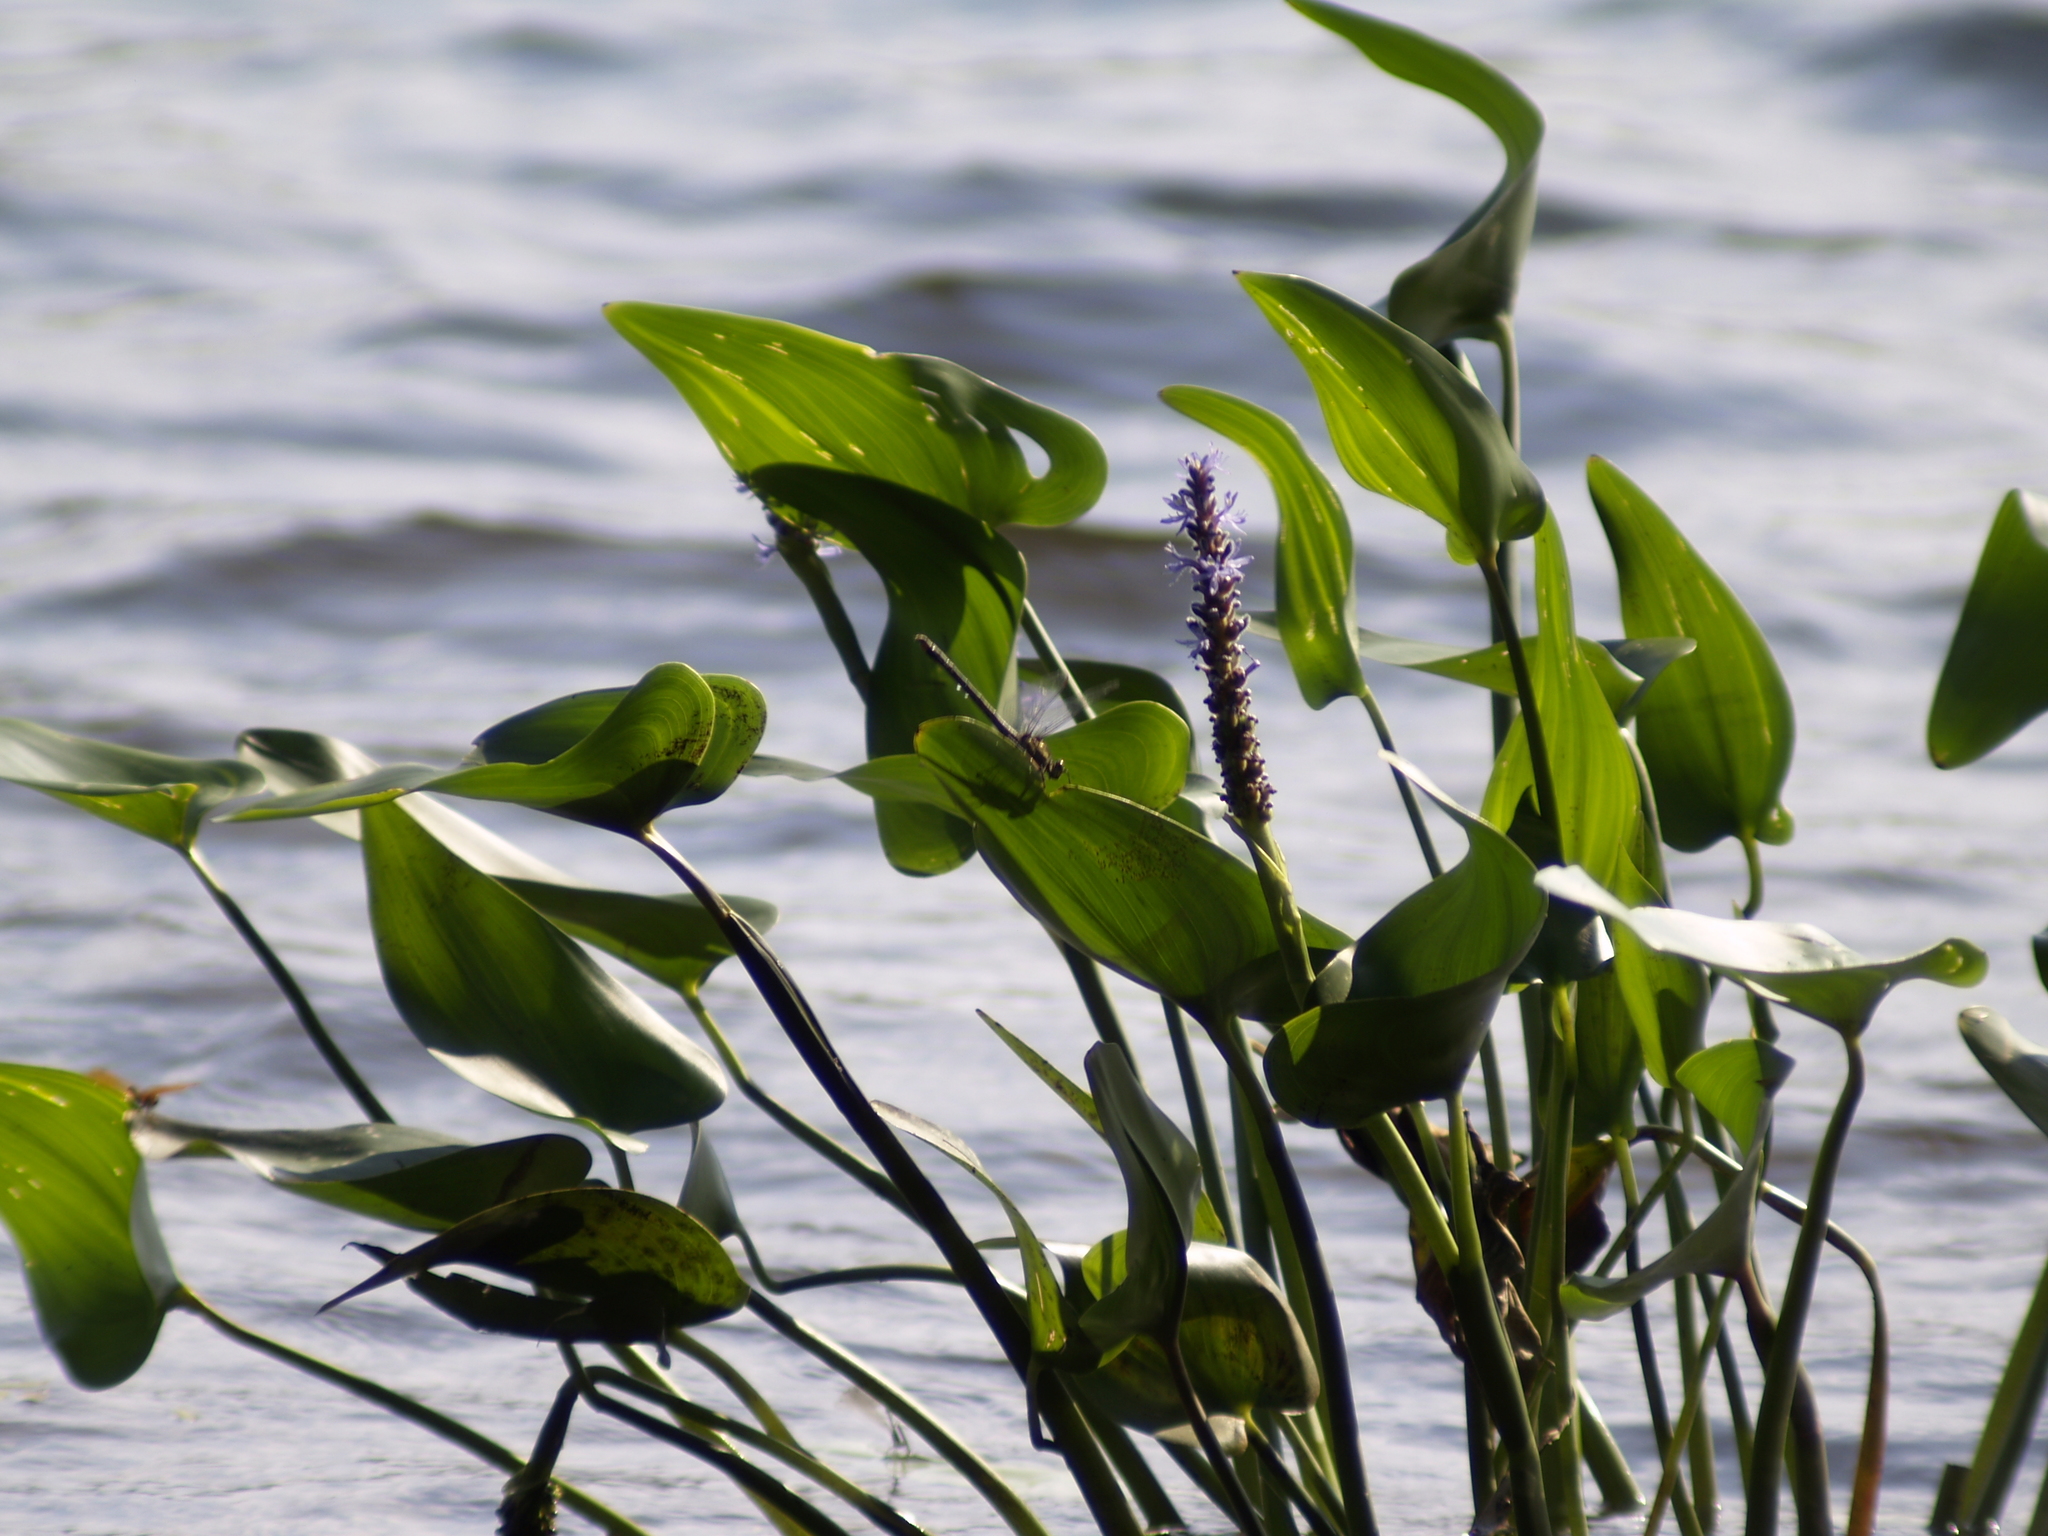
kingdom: Plantae
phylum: Tracheophyta
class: Liliopsida
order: Commelinales
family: Pontederiaceae
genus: Pontederia
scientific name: Pontederia cordata
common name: Pickerelweed
